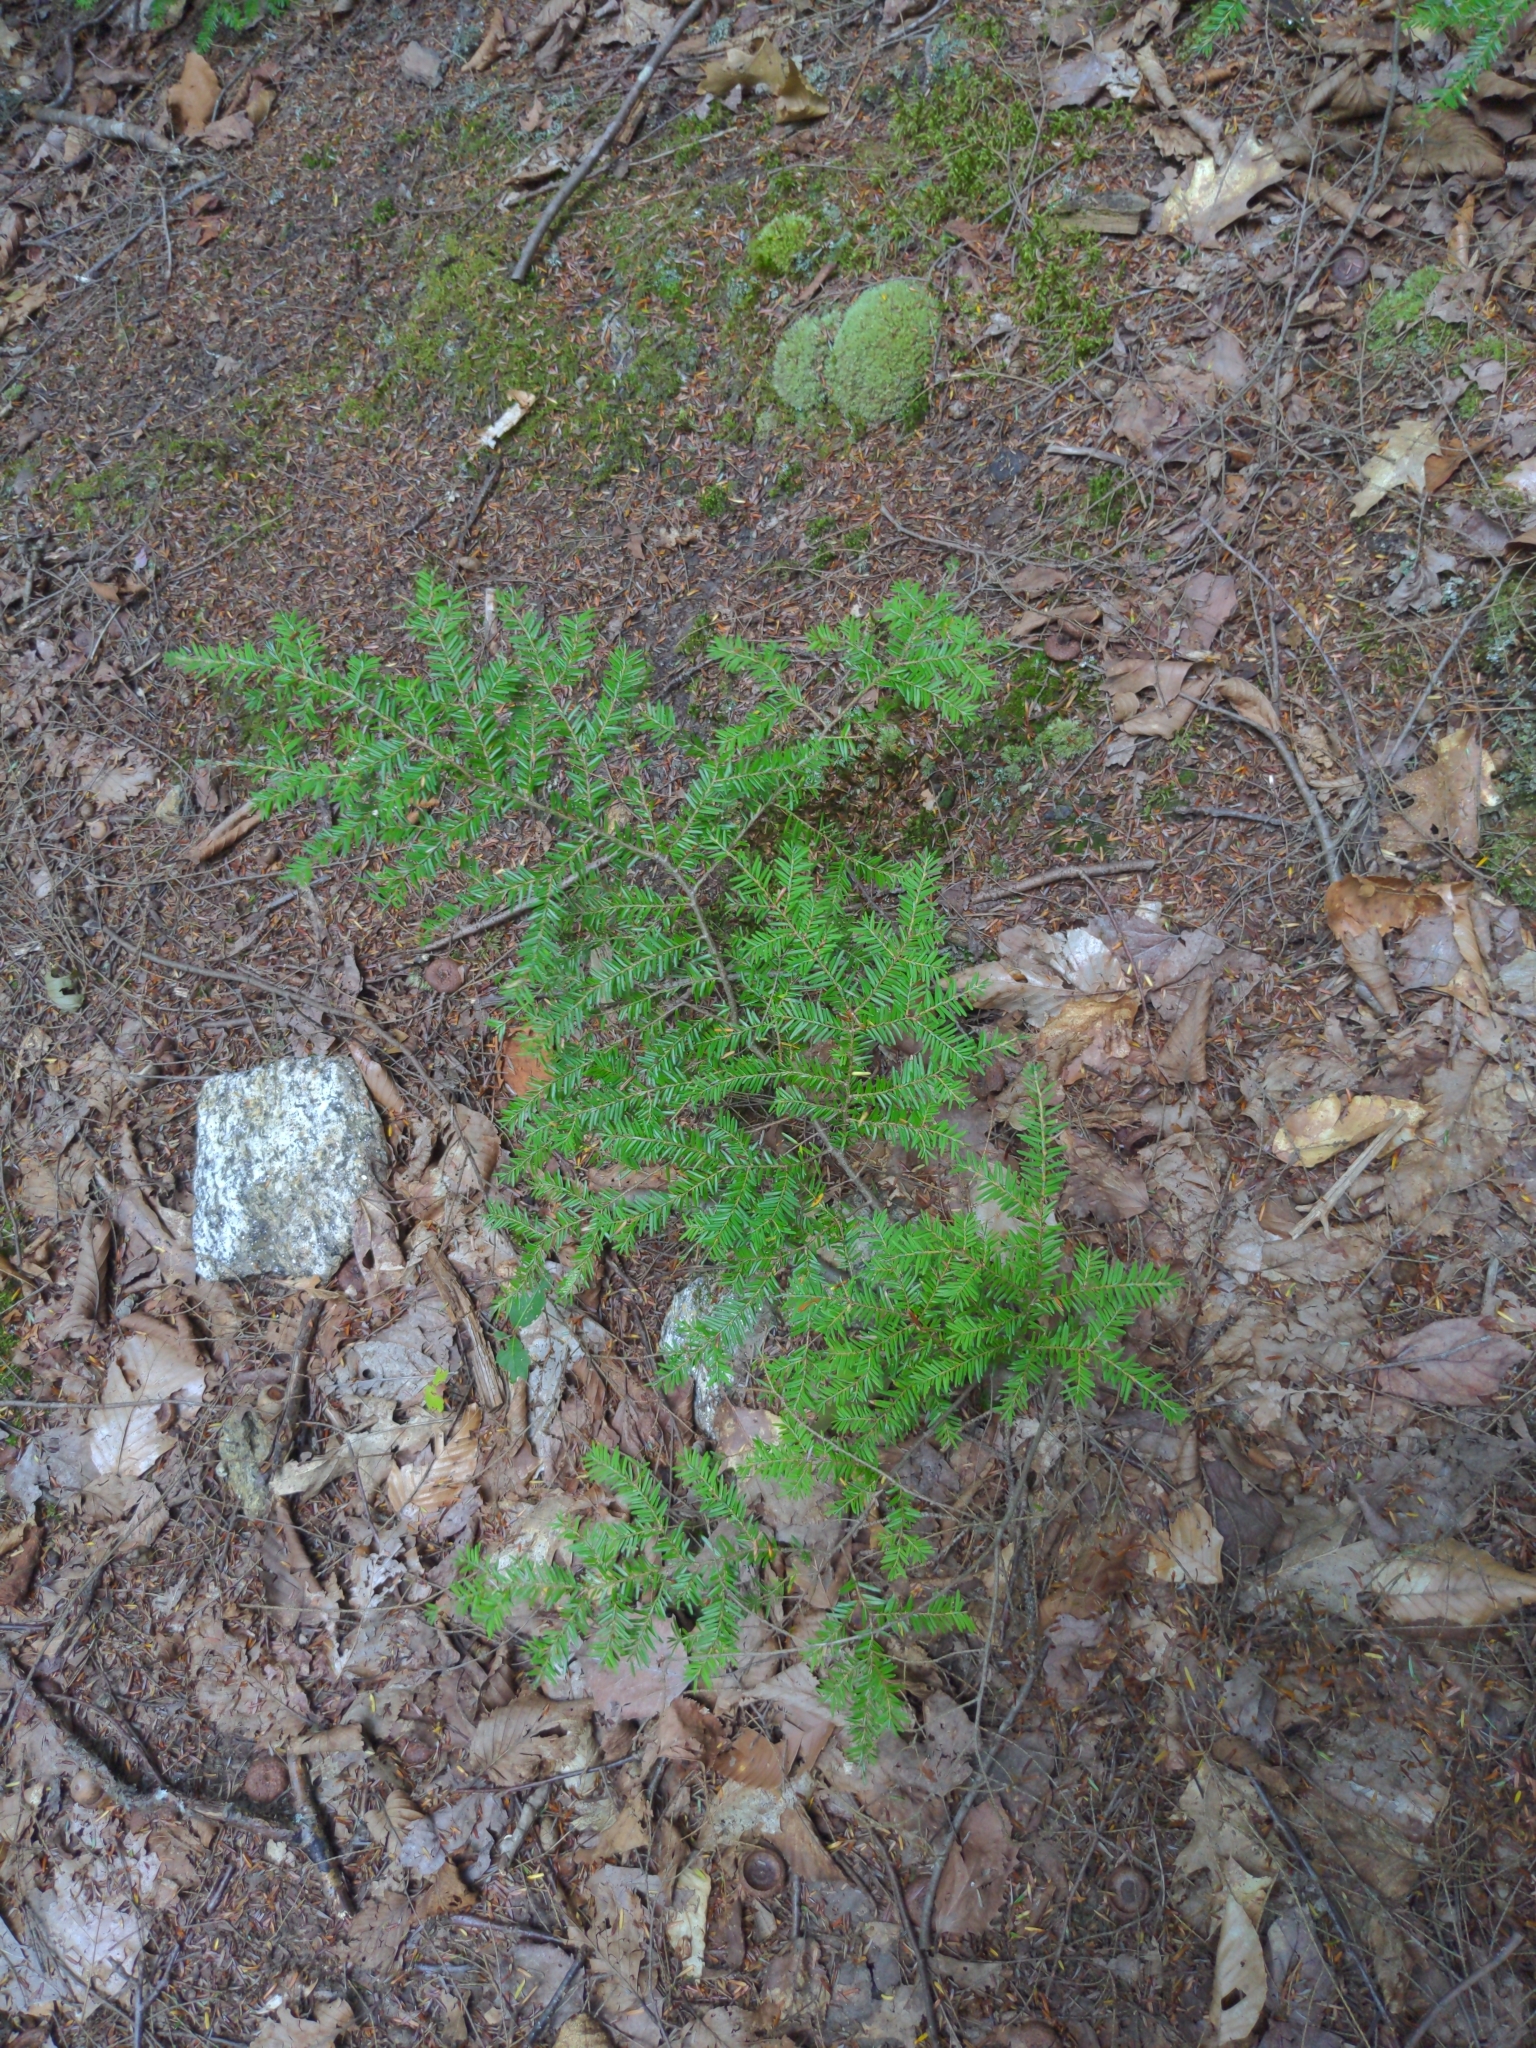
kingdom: Plantae
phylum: Tracheophyta
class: Pinopsida
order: Pinales
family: Pinaceae
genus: Tsuga
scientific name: Tsuga canadensis
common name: Eastern hemlock
